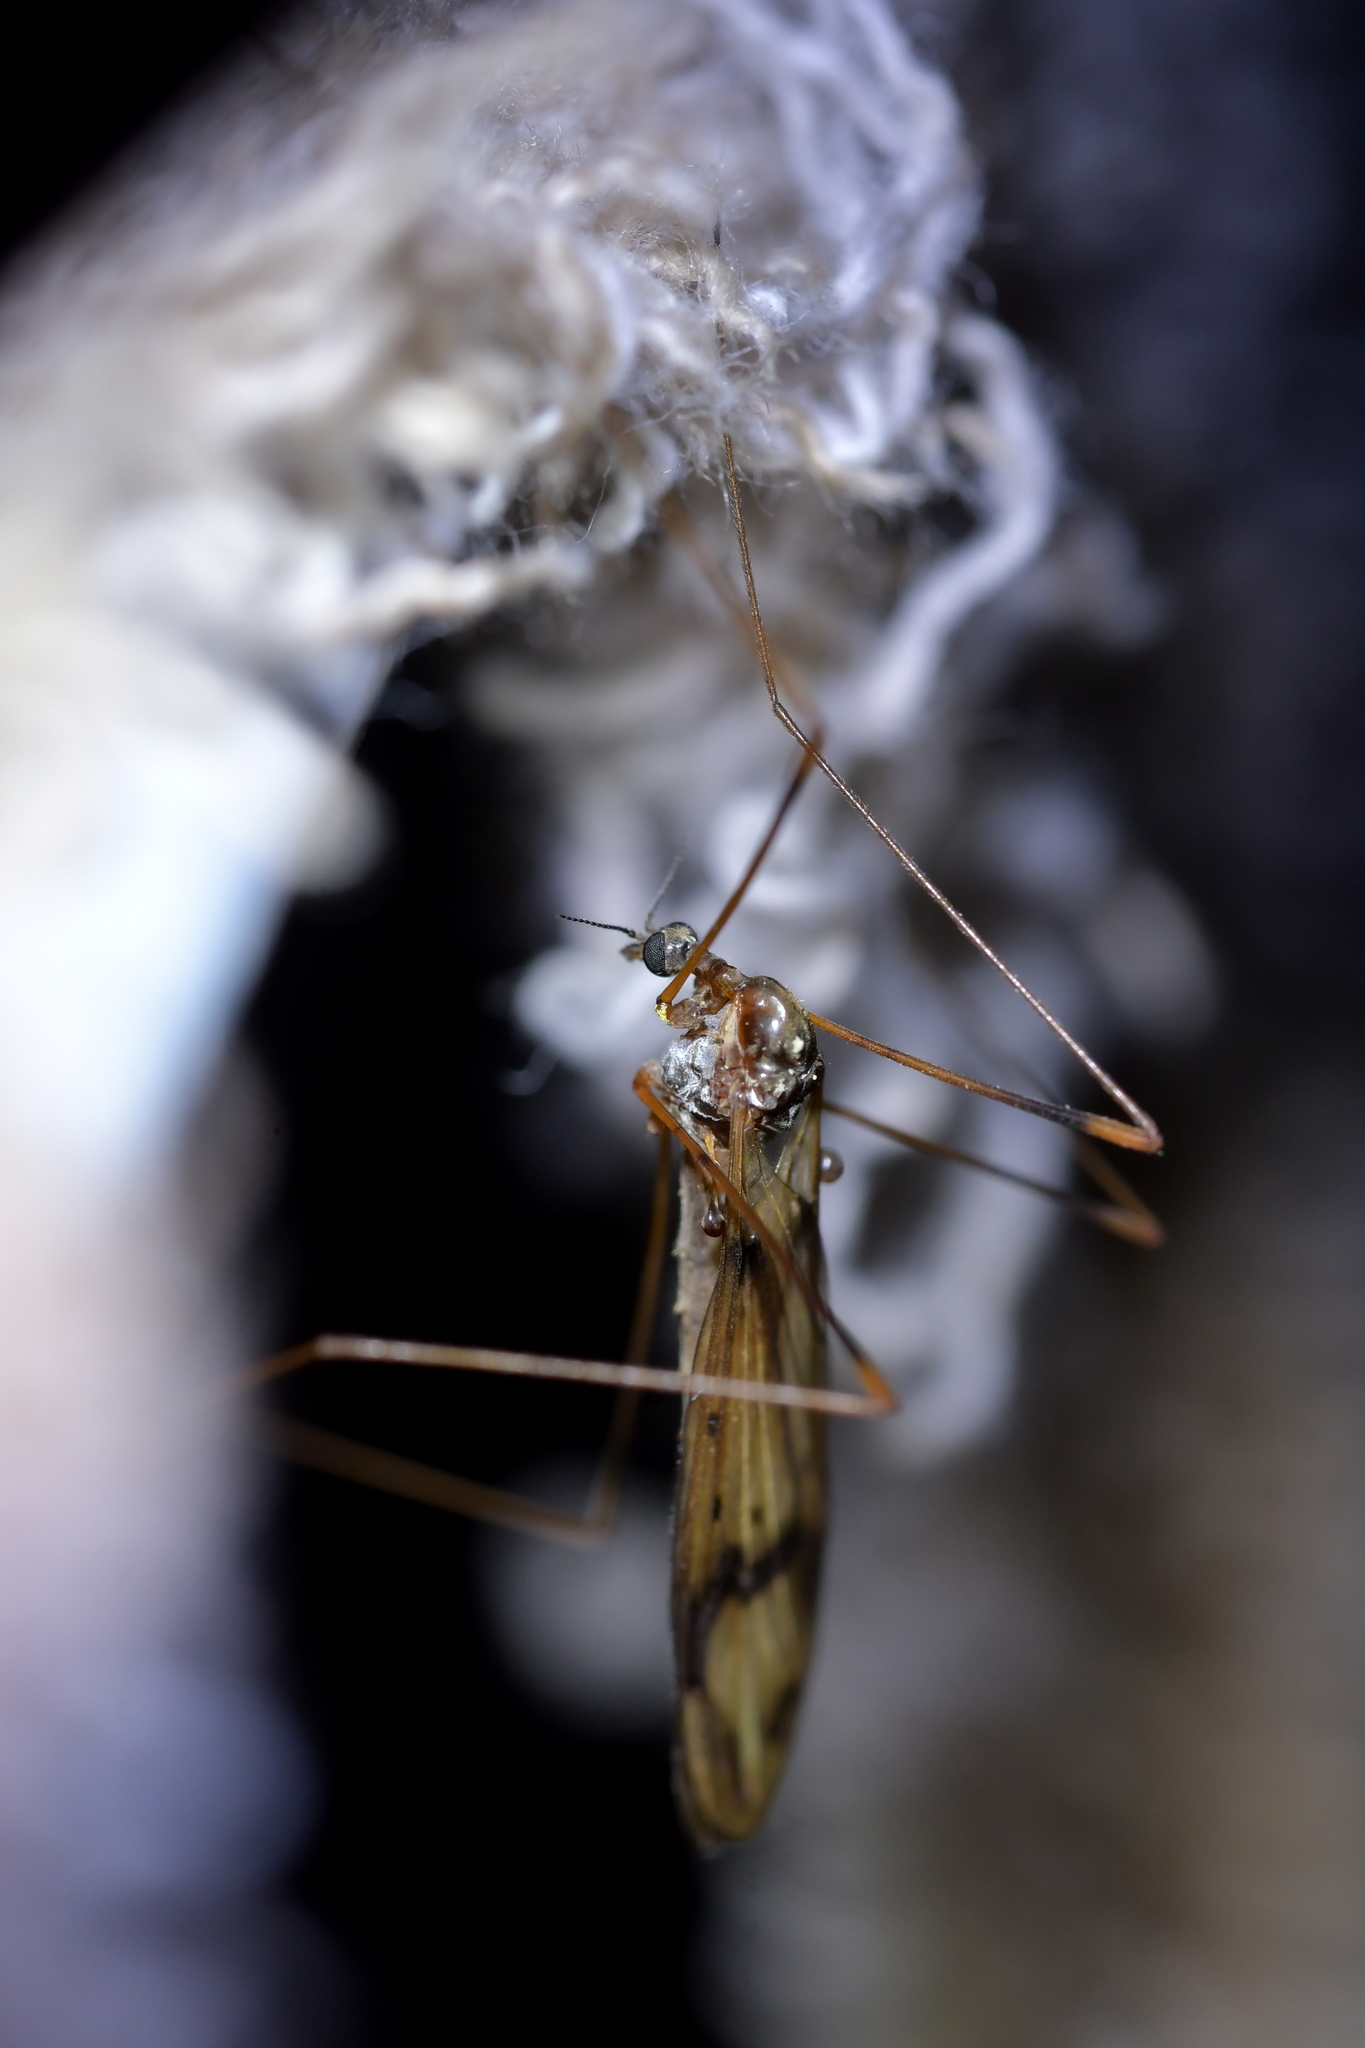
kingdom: Animalia
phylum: Arthropoda
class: Insecta
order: Diptera
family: Limoniidae
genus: Dicranomyia
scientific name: Dicranomyia repanda
